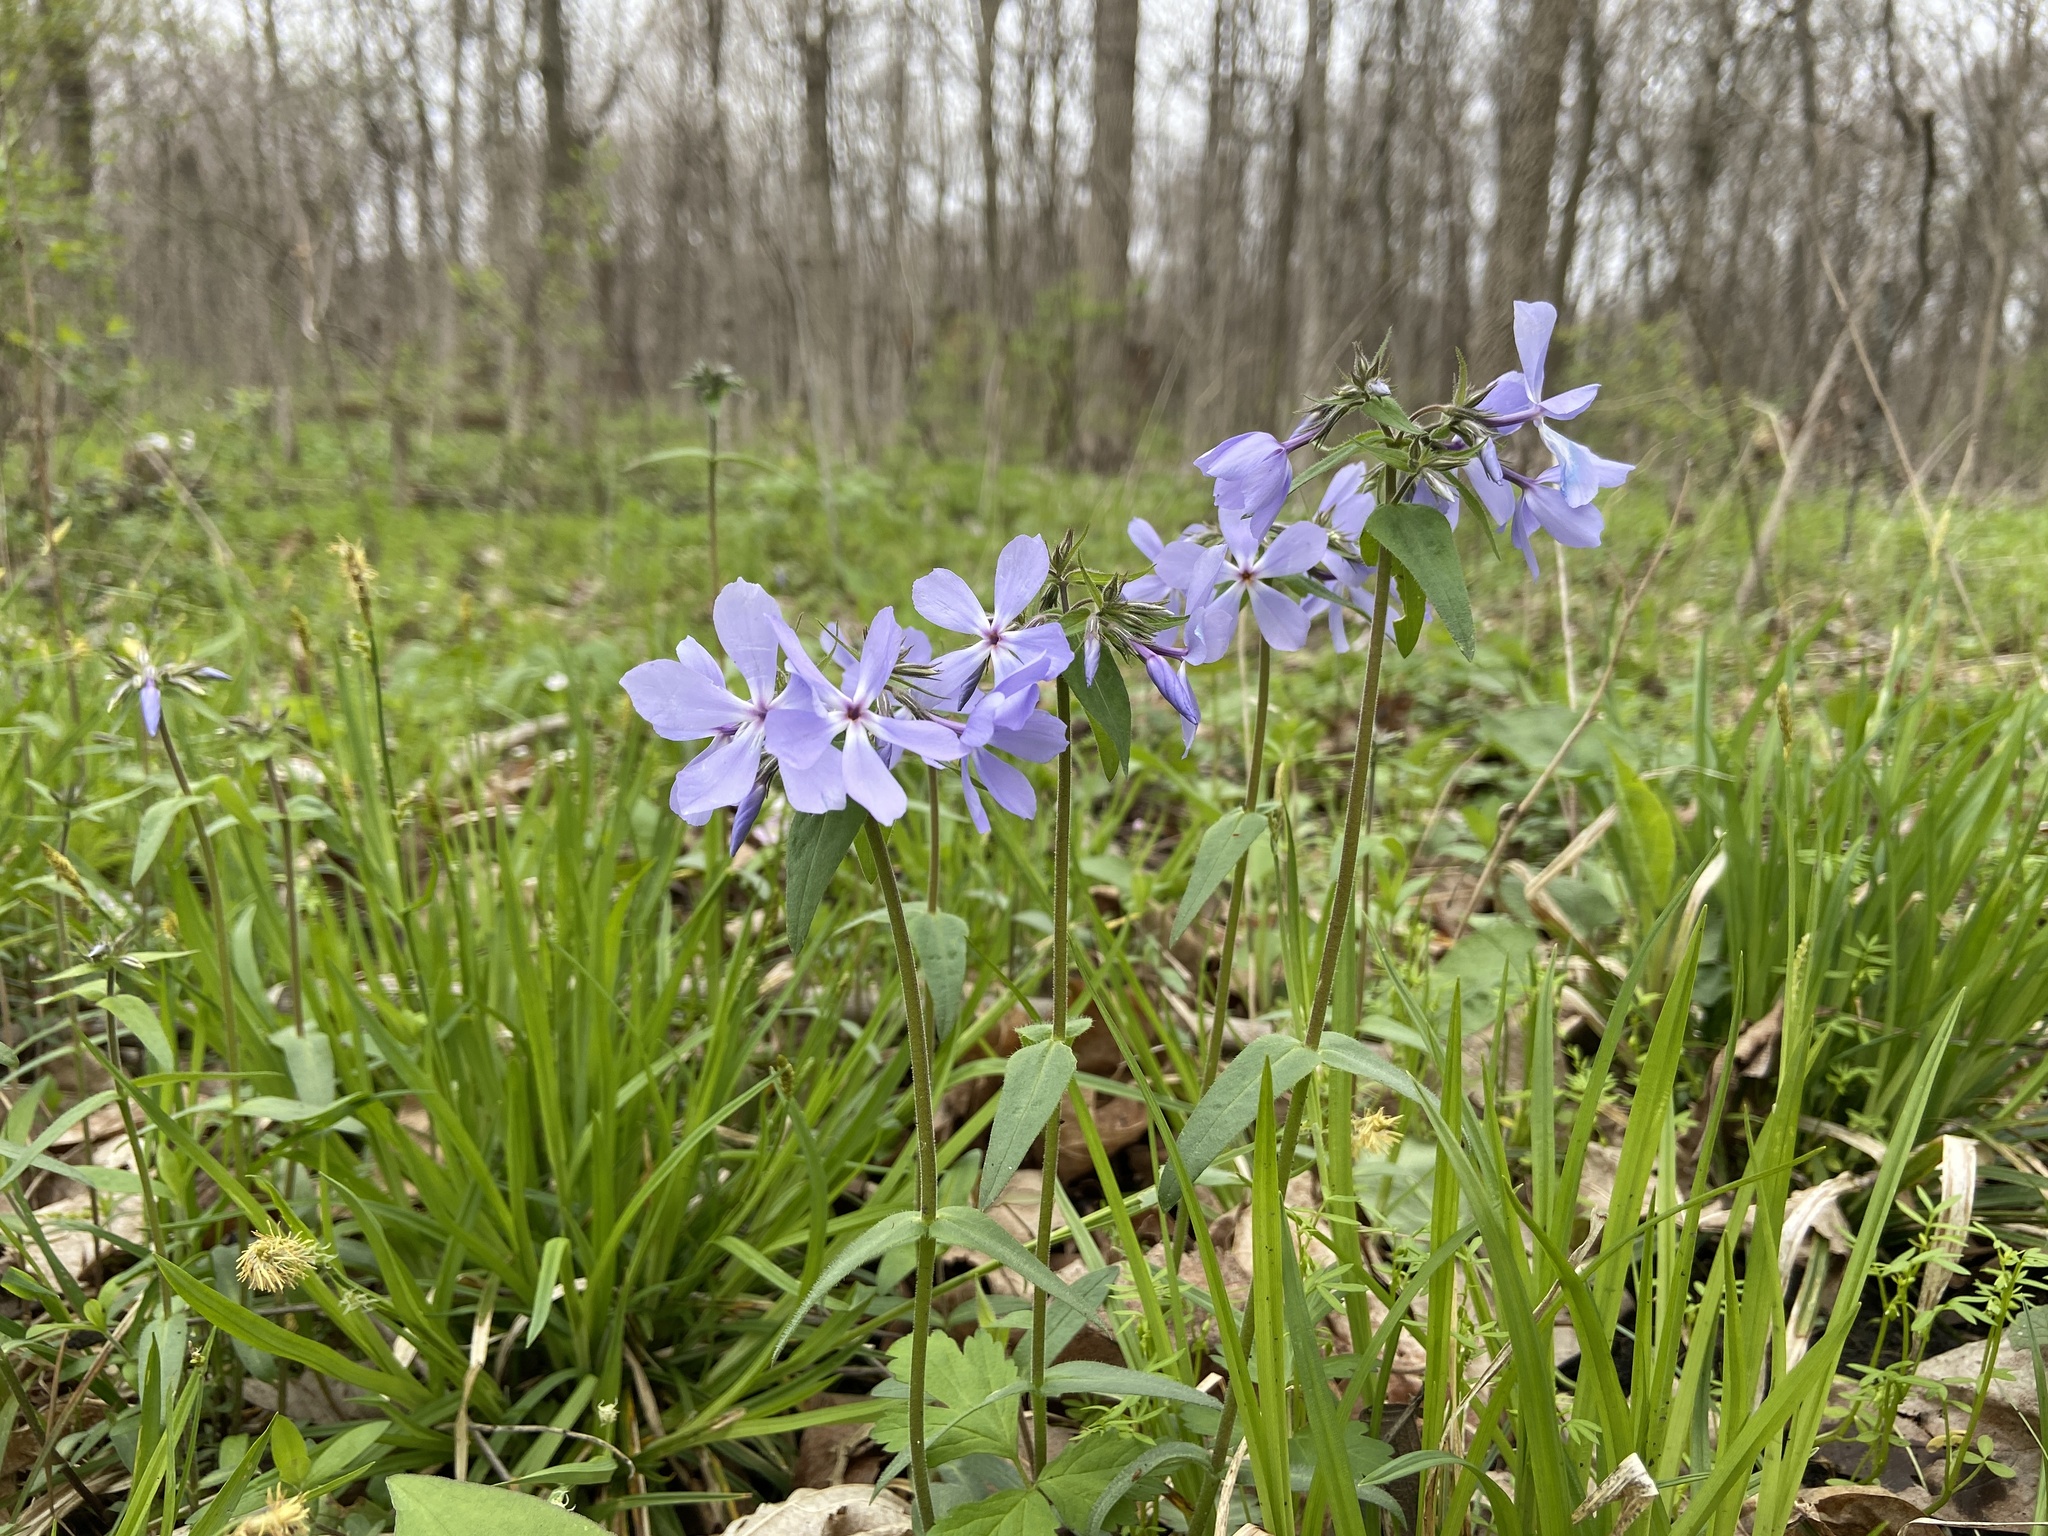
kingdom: Plantae
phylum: Tracheophyta
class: Magnoliopsida
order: Ericales
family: Polemoniaceae
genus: Phlox
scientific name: Phlox divaricata
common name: Blue phlox
